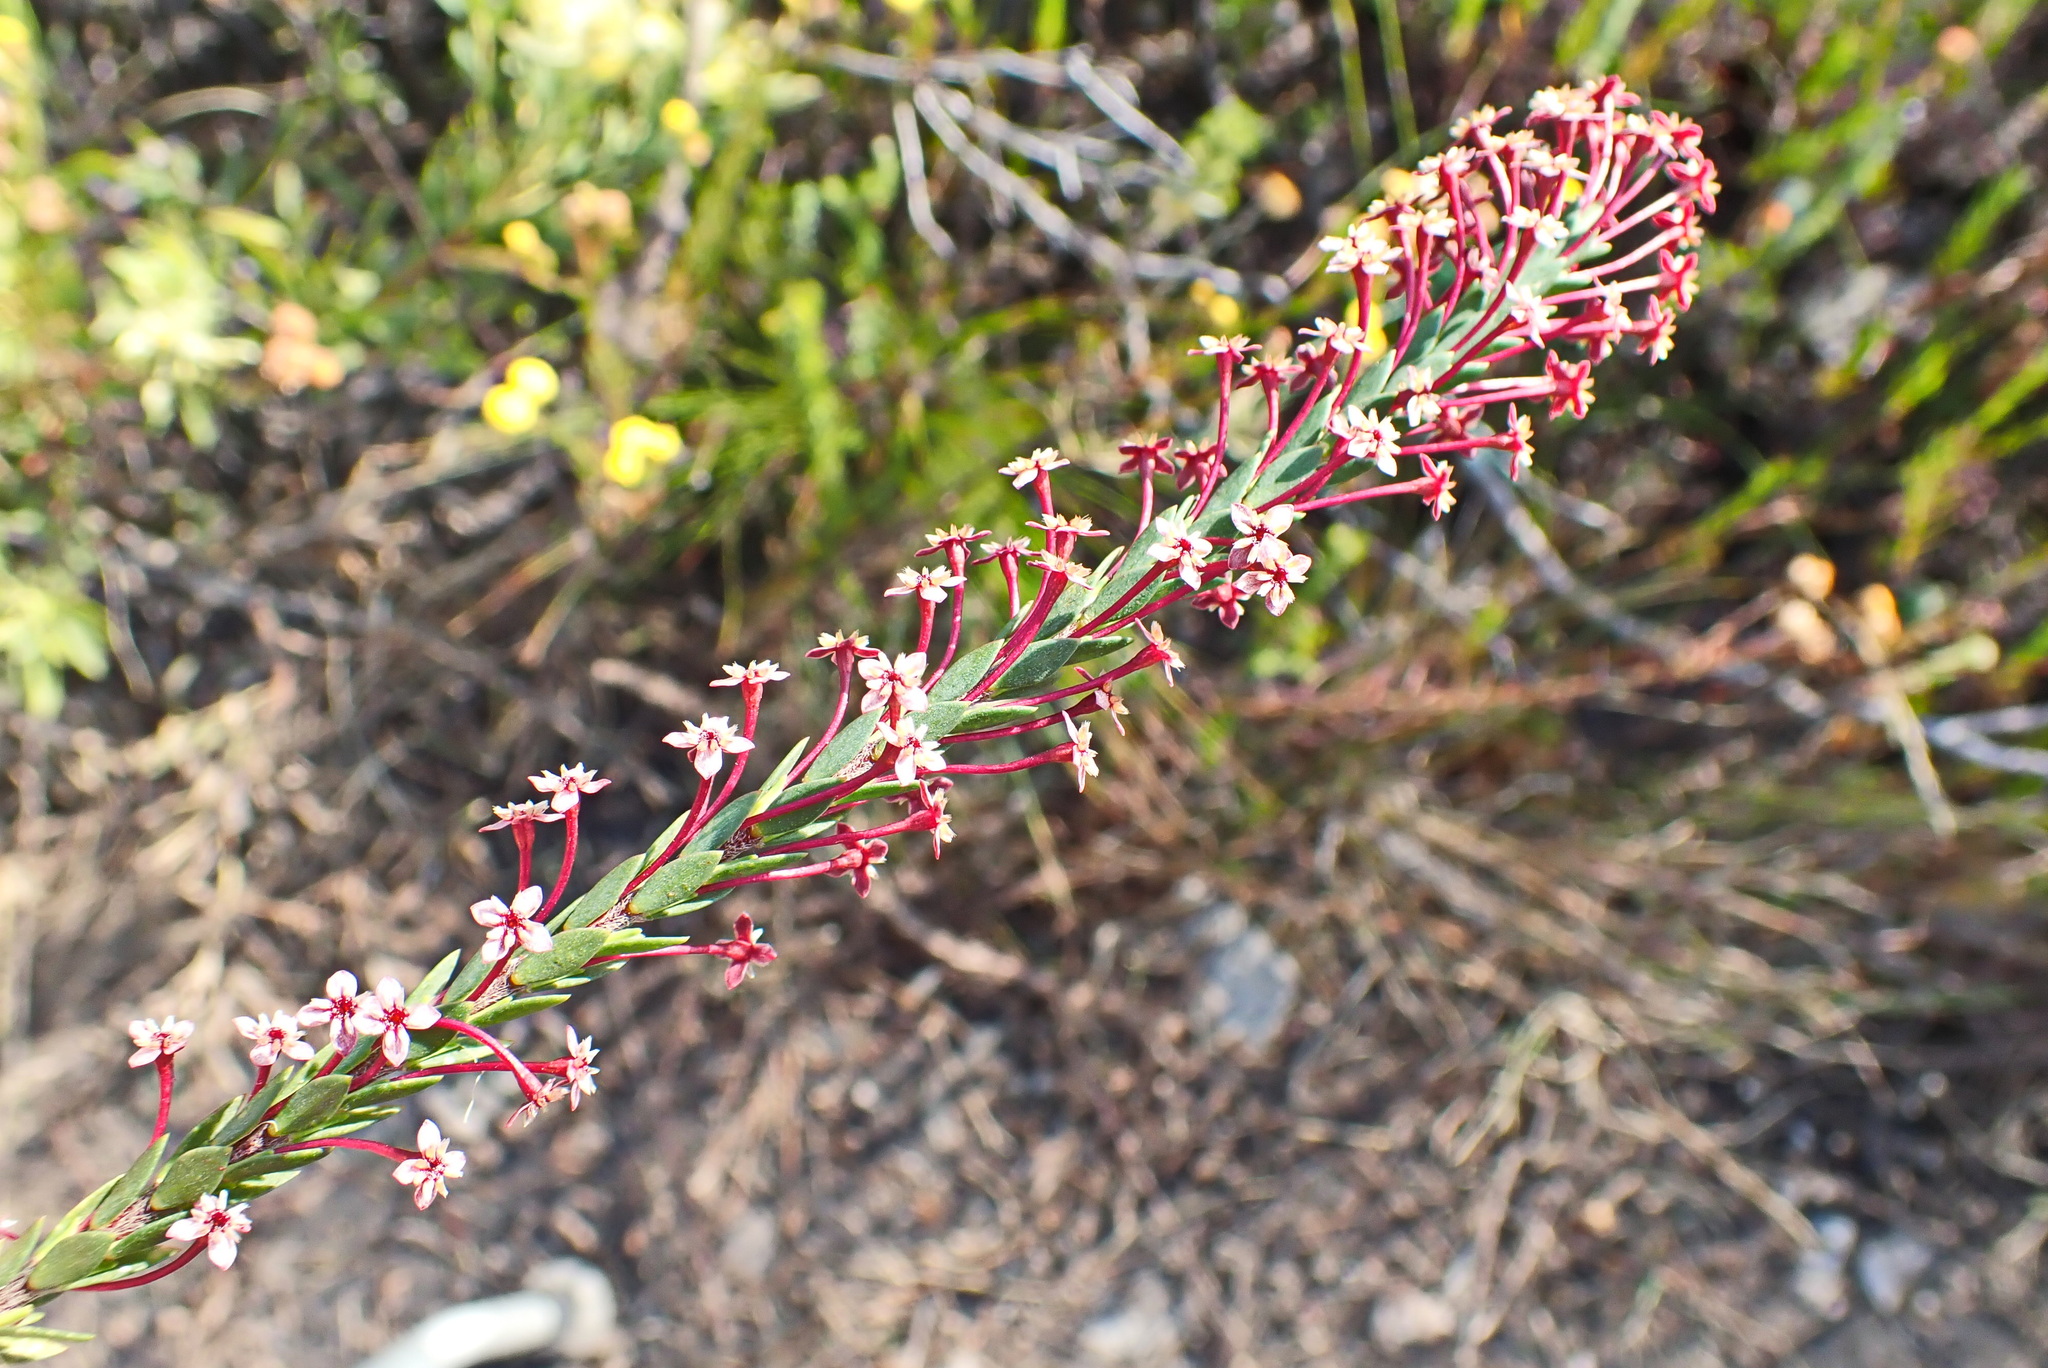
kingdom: Plantae
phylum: Tracheophyta
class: Magnoliopsida
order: Malvales
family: Thymelaeaceae
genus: Struthiola
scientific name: Struthiola macowanii
